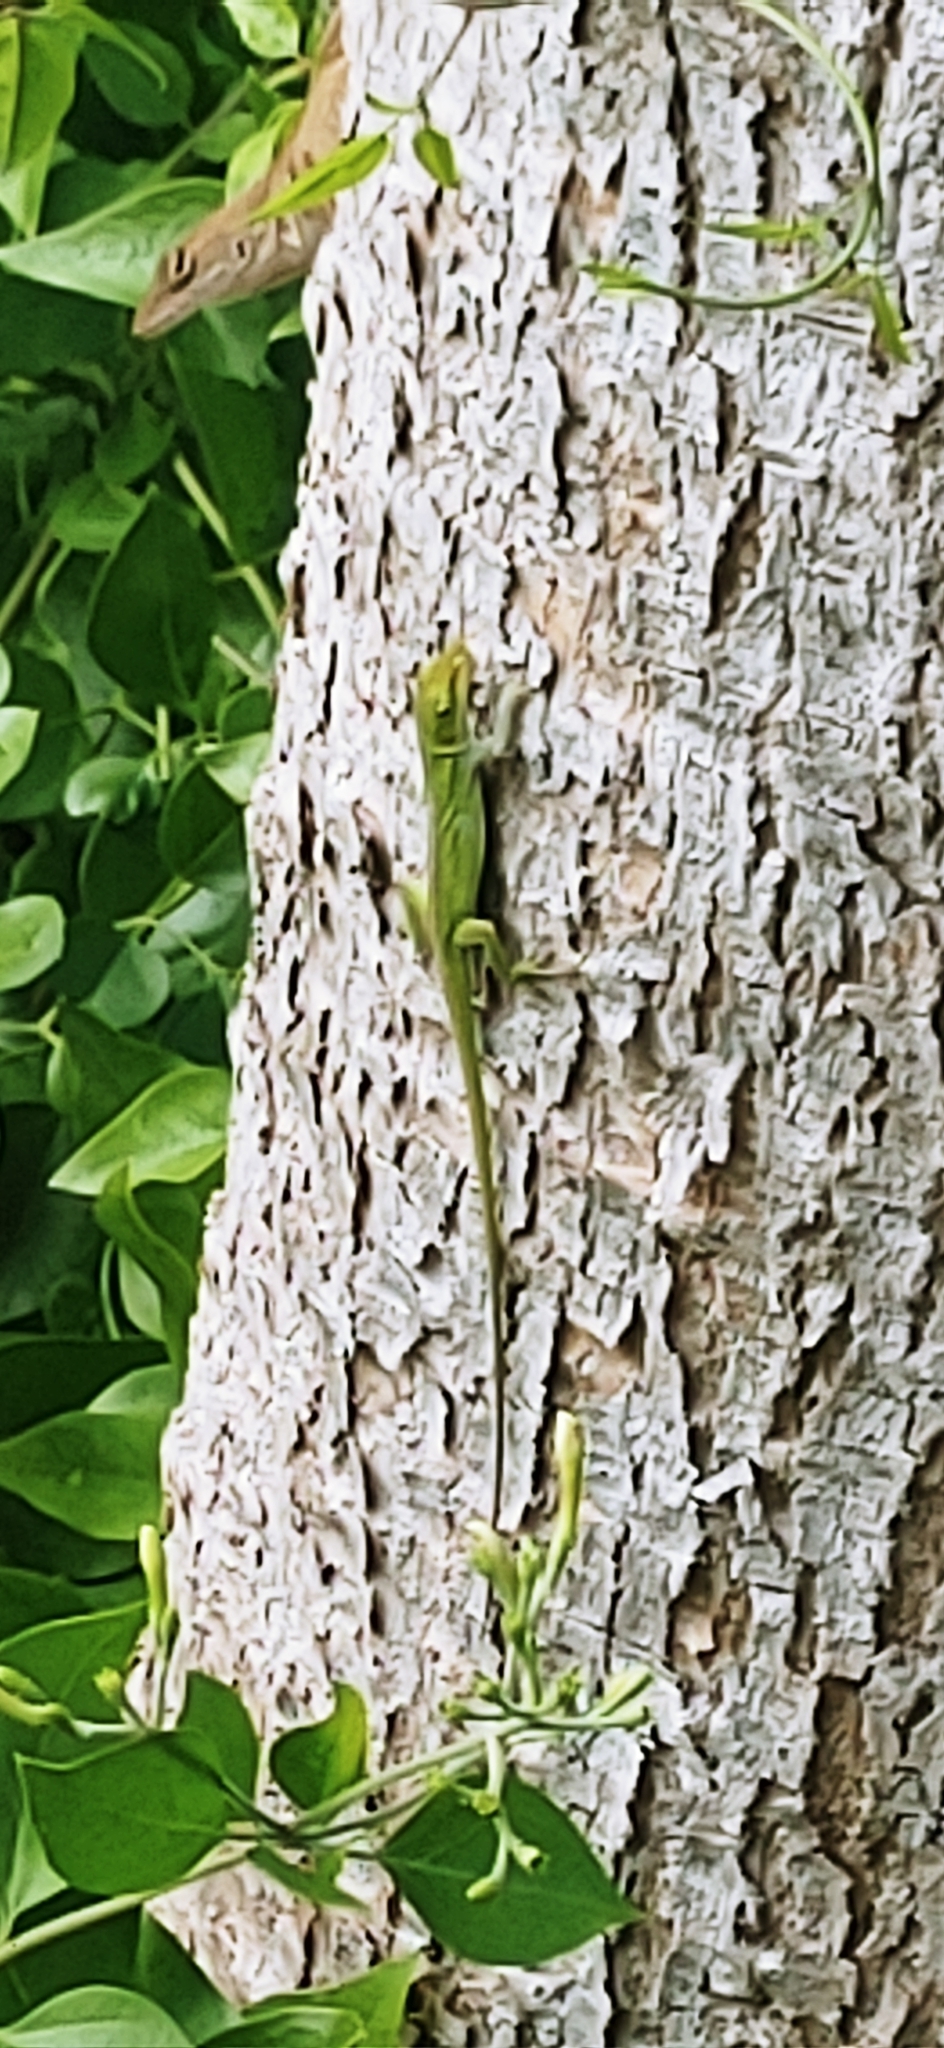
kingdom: Animalia
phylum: Chordata
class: Squamata
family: Dactyloidae
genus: Anolis
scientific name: Anolis carolinensis
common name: Green anole
